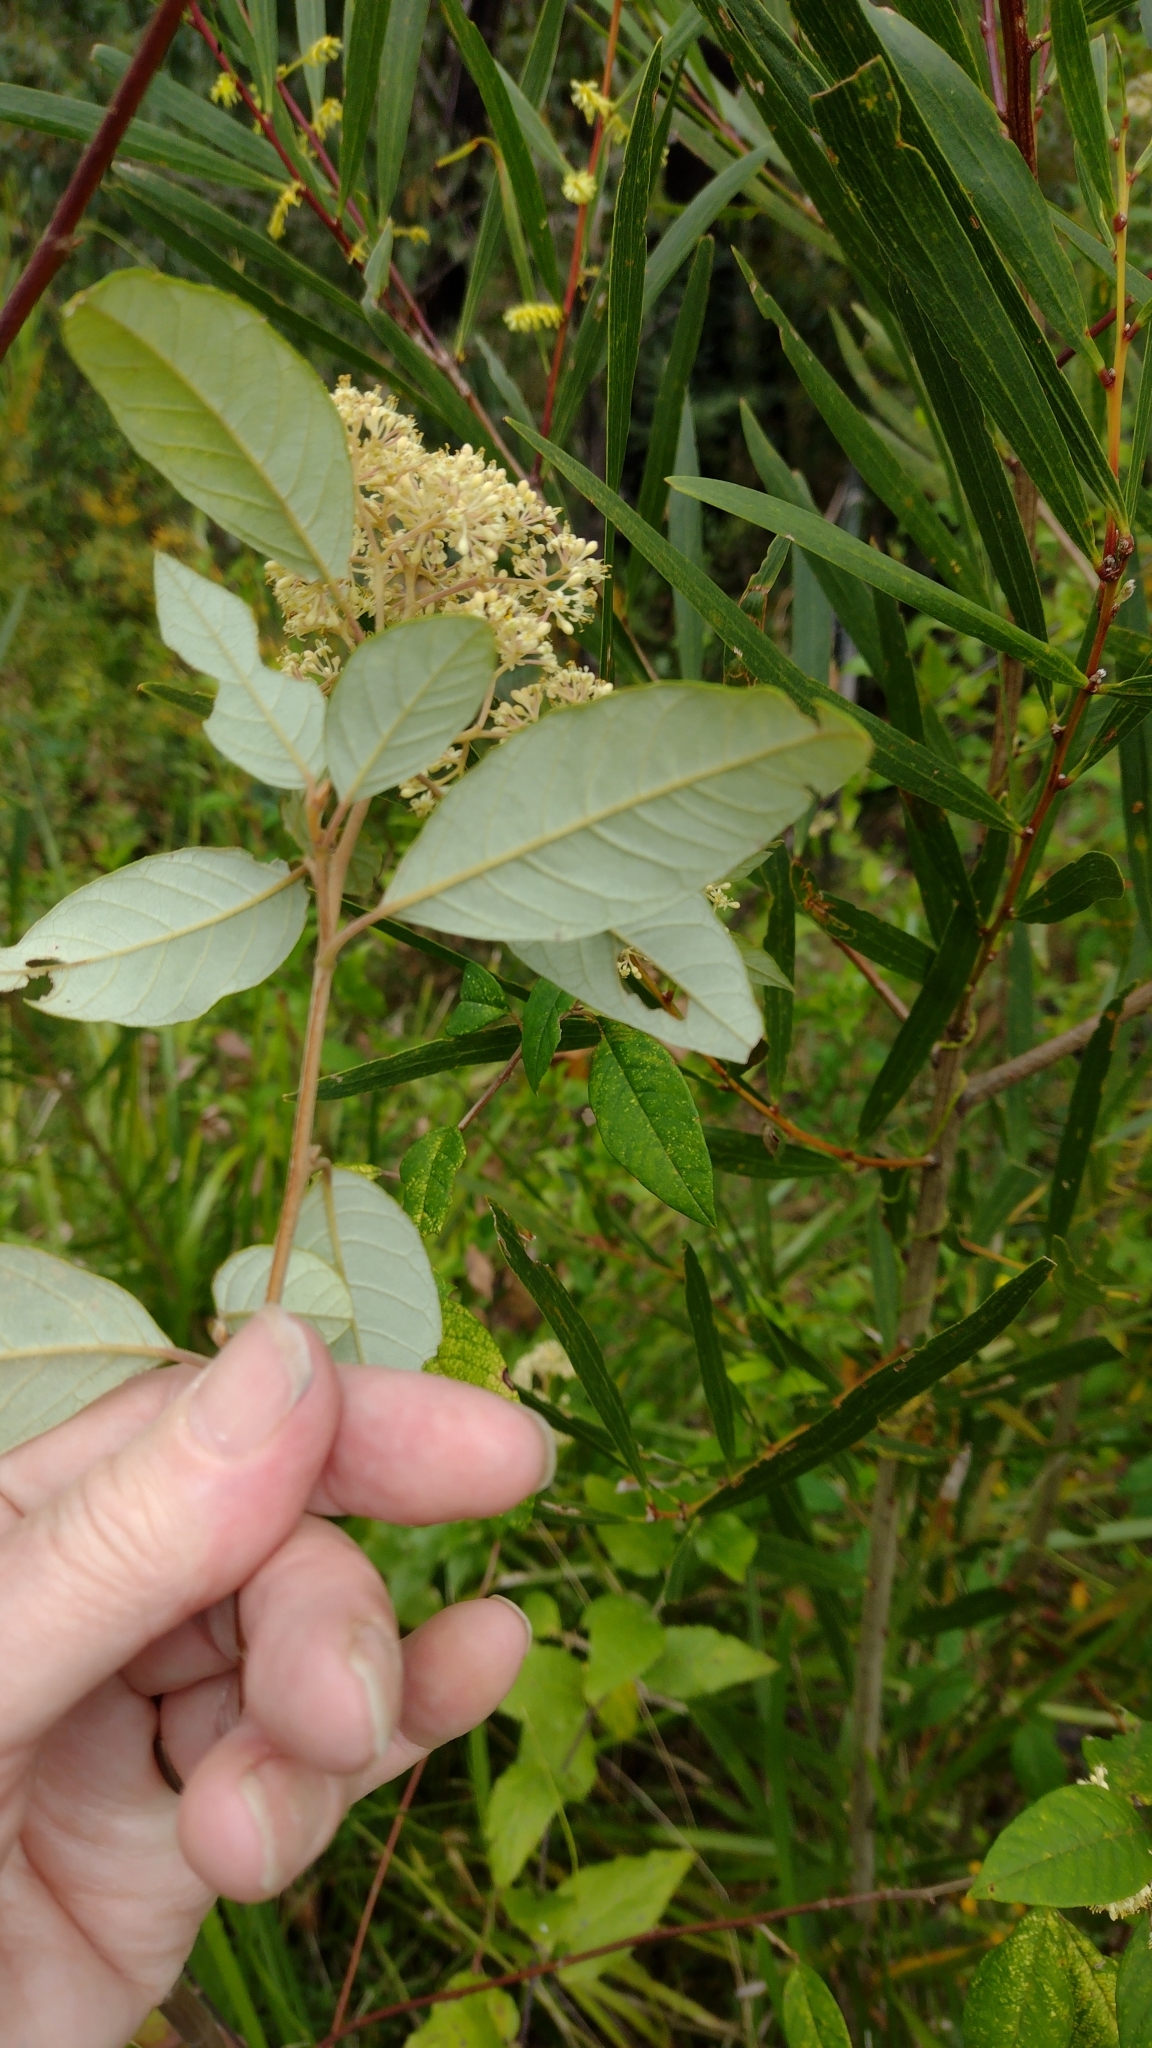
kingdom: Plantae
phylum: Tracheophyta
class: Magnoliopsida
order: Rosales
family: Rhamnaceae
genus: Pomaderris
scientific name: Pomaderris discolor
